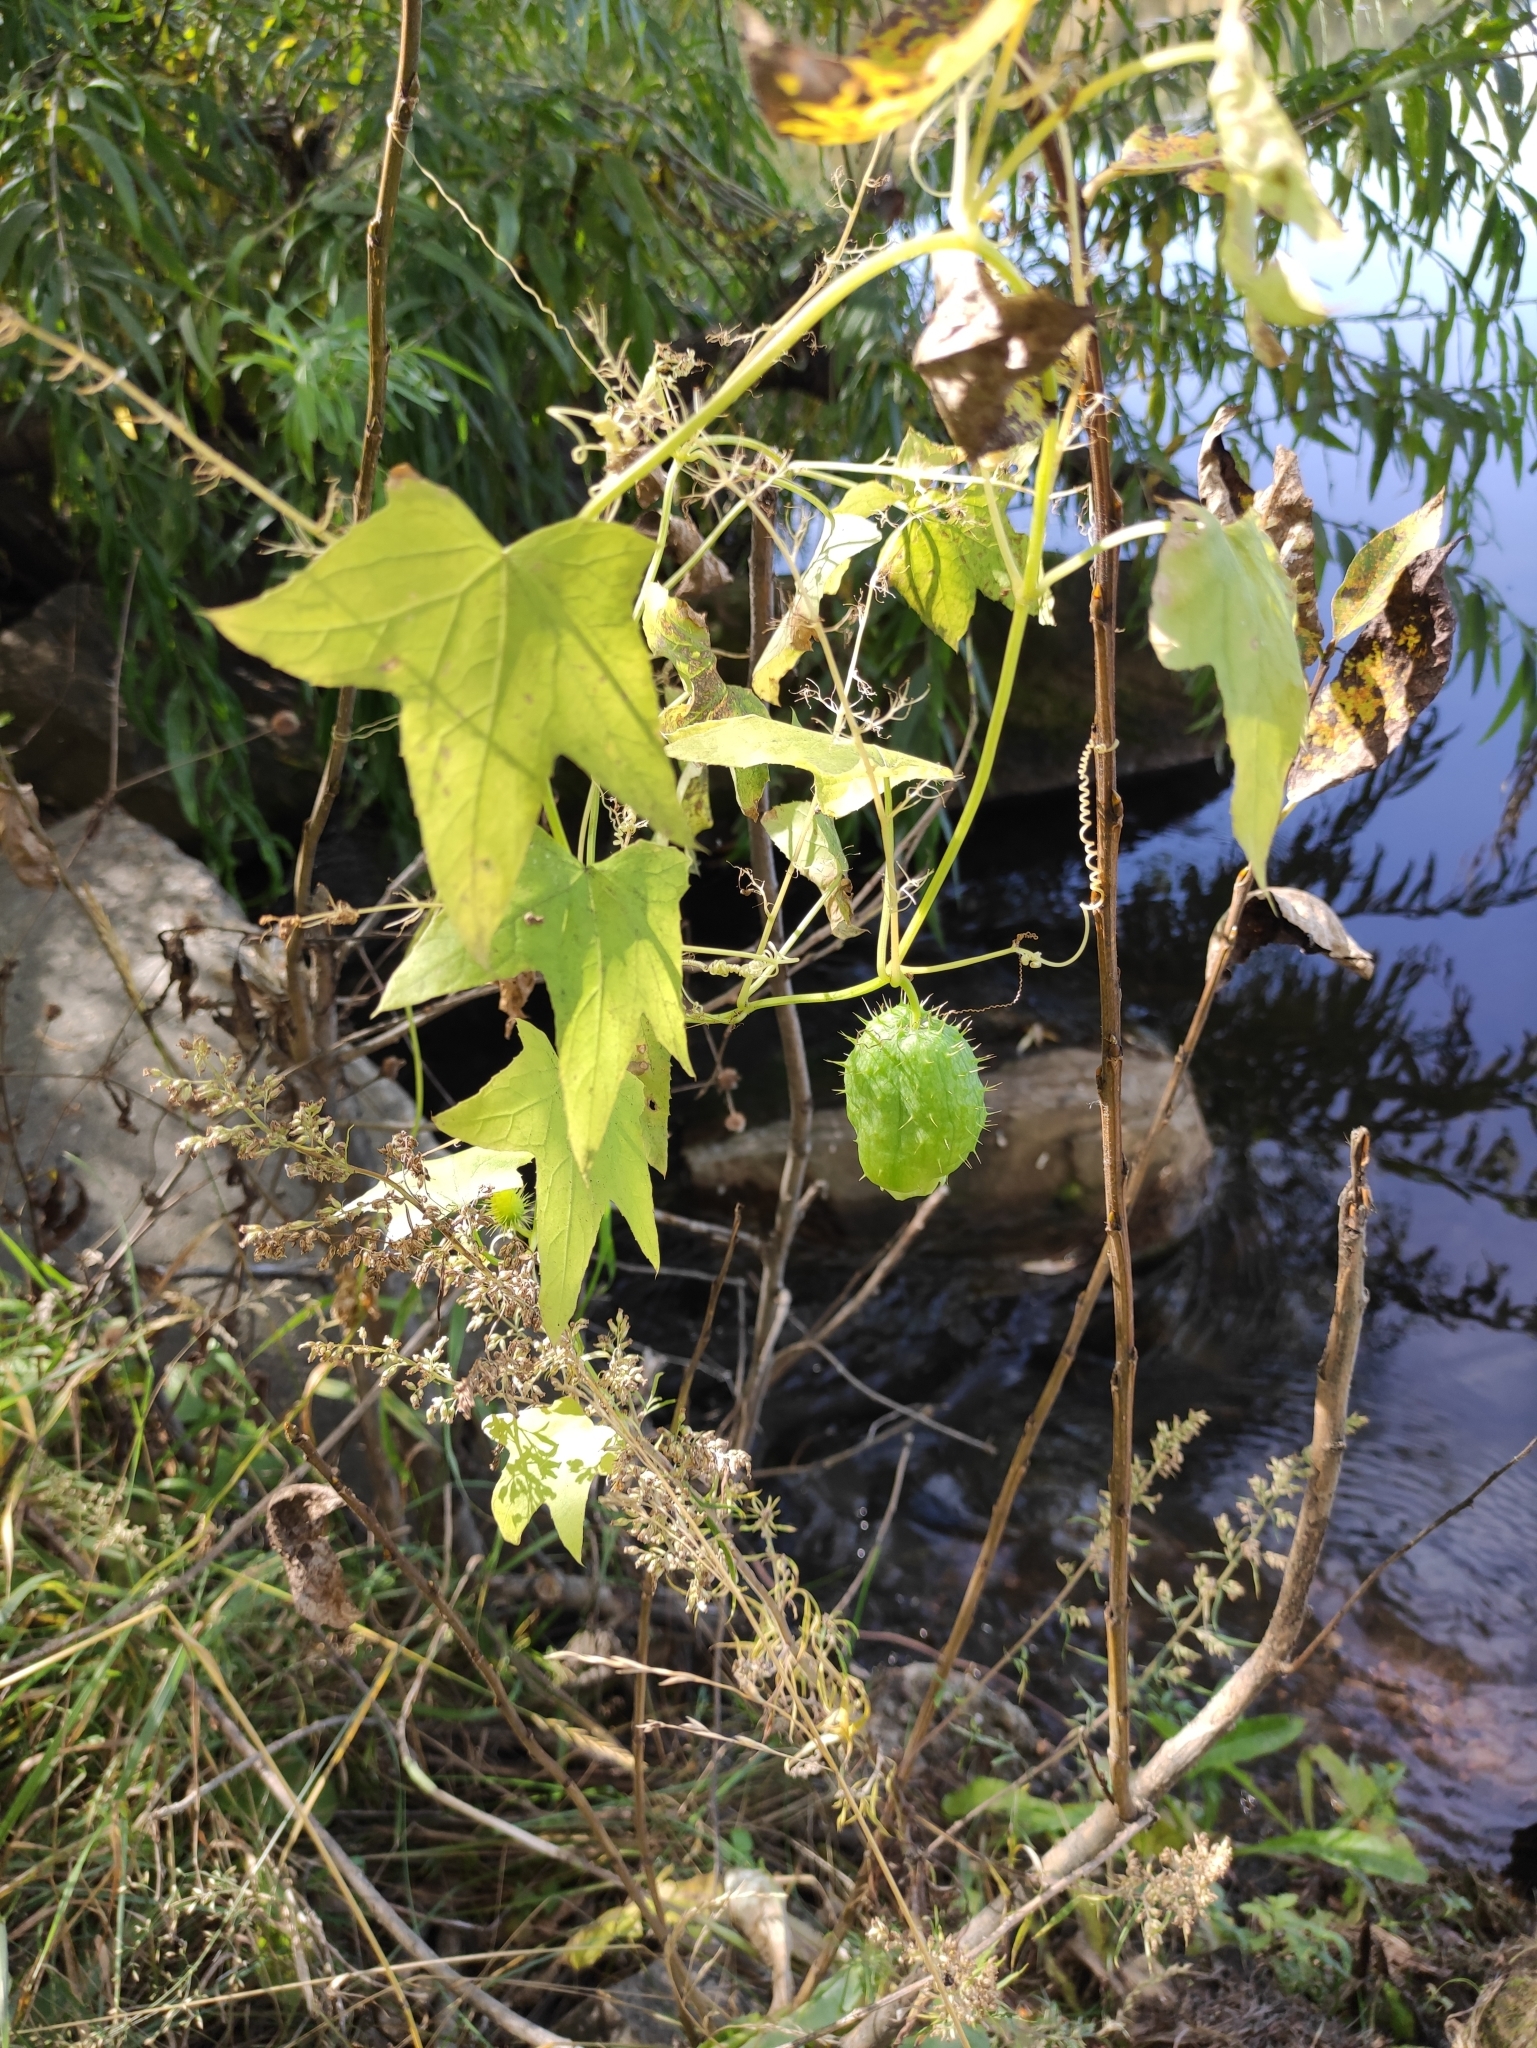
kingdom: Plantae
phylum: Tracheophyta
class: Magnoliopsida
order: Cucurbitales
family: Cucurbitaceae
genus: Echinocystis
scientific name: Echinocystis lobata
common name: Wild cucumber
